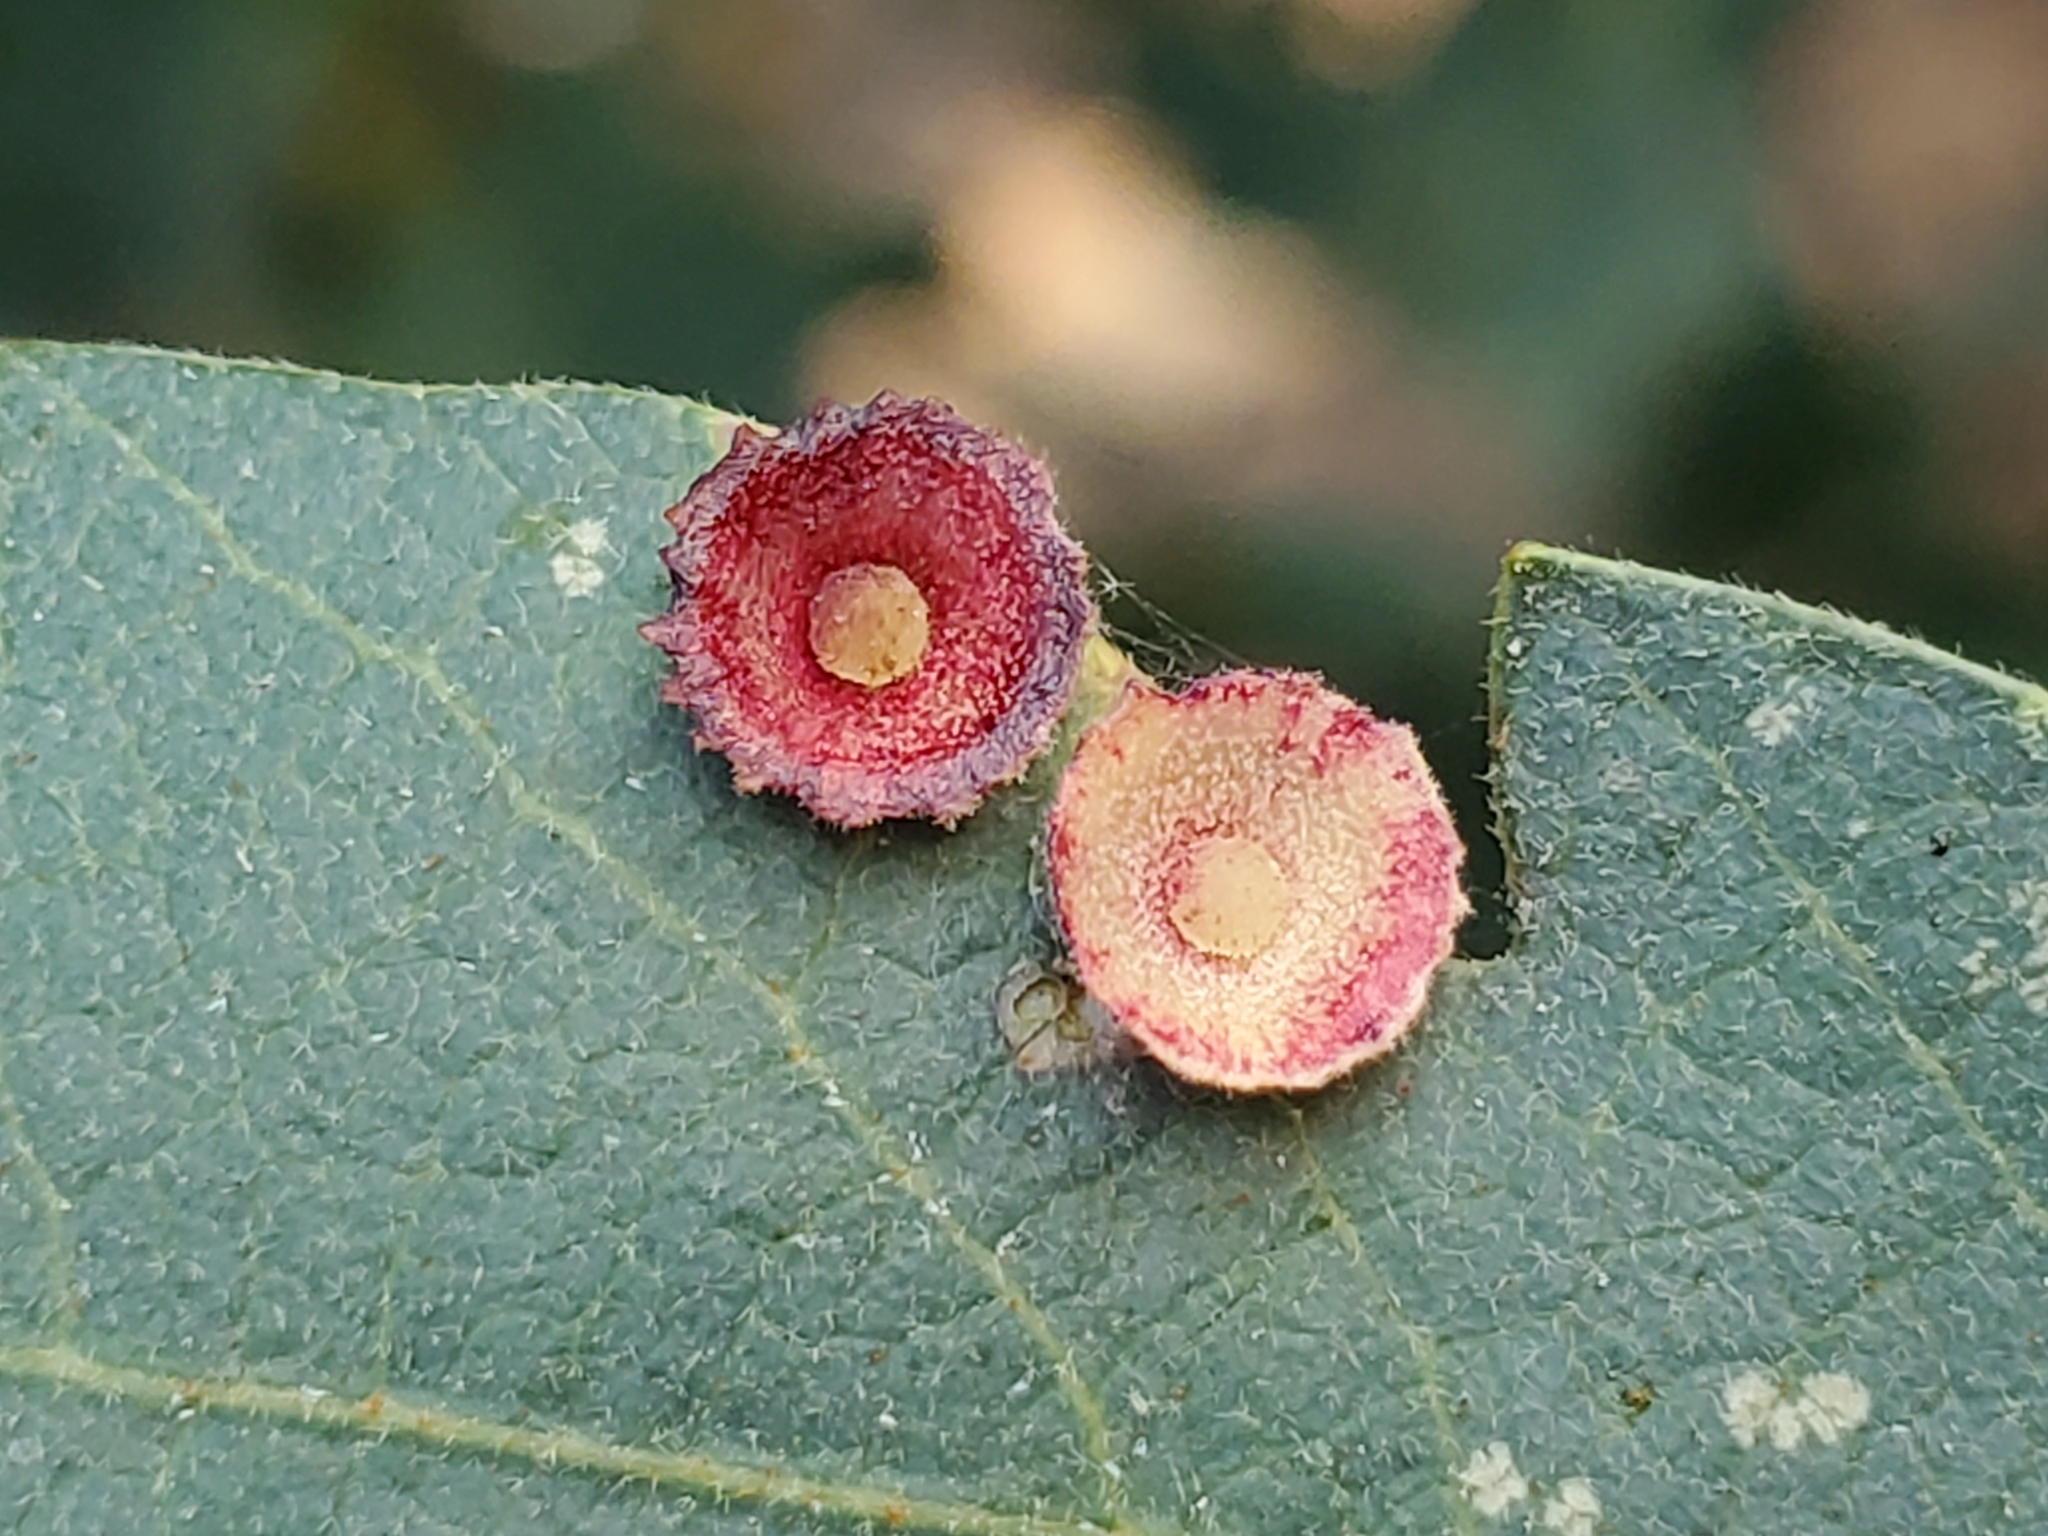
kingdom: Animalia
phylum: Arthropoda
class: Insecta
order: Hymenoptera
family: Cynipidae
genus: Andricus
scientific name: Andricus
